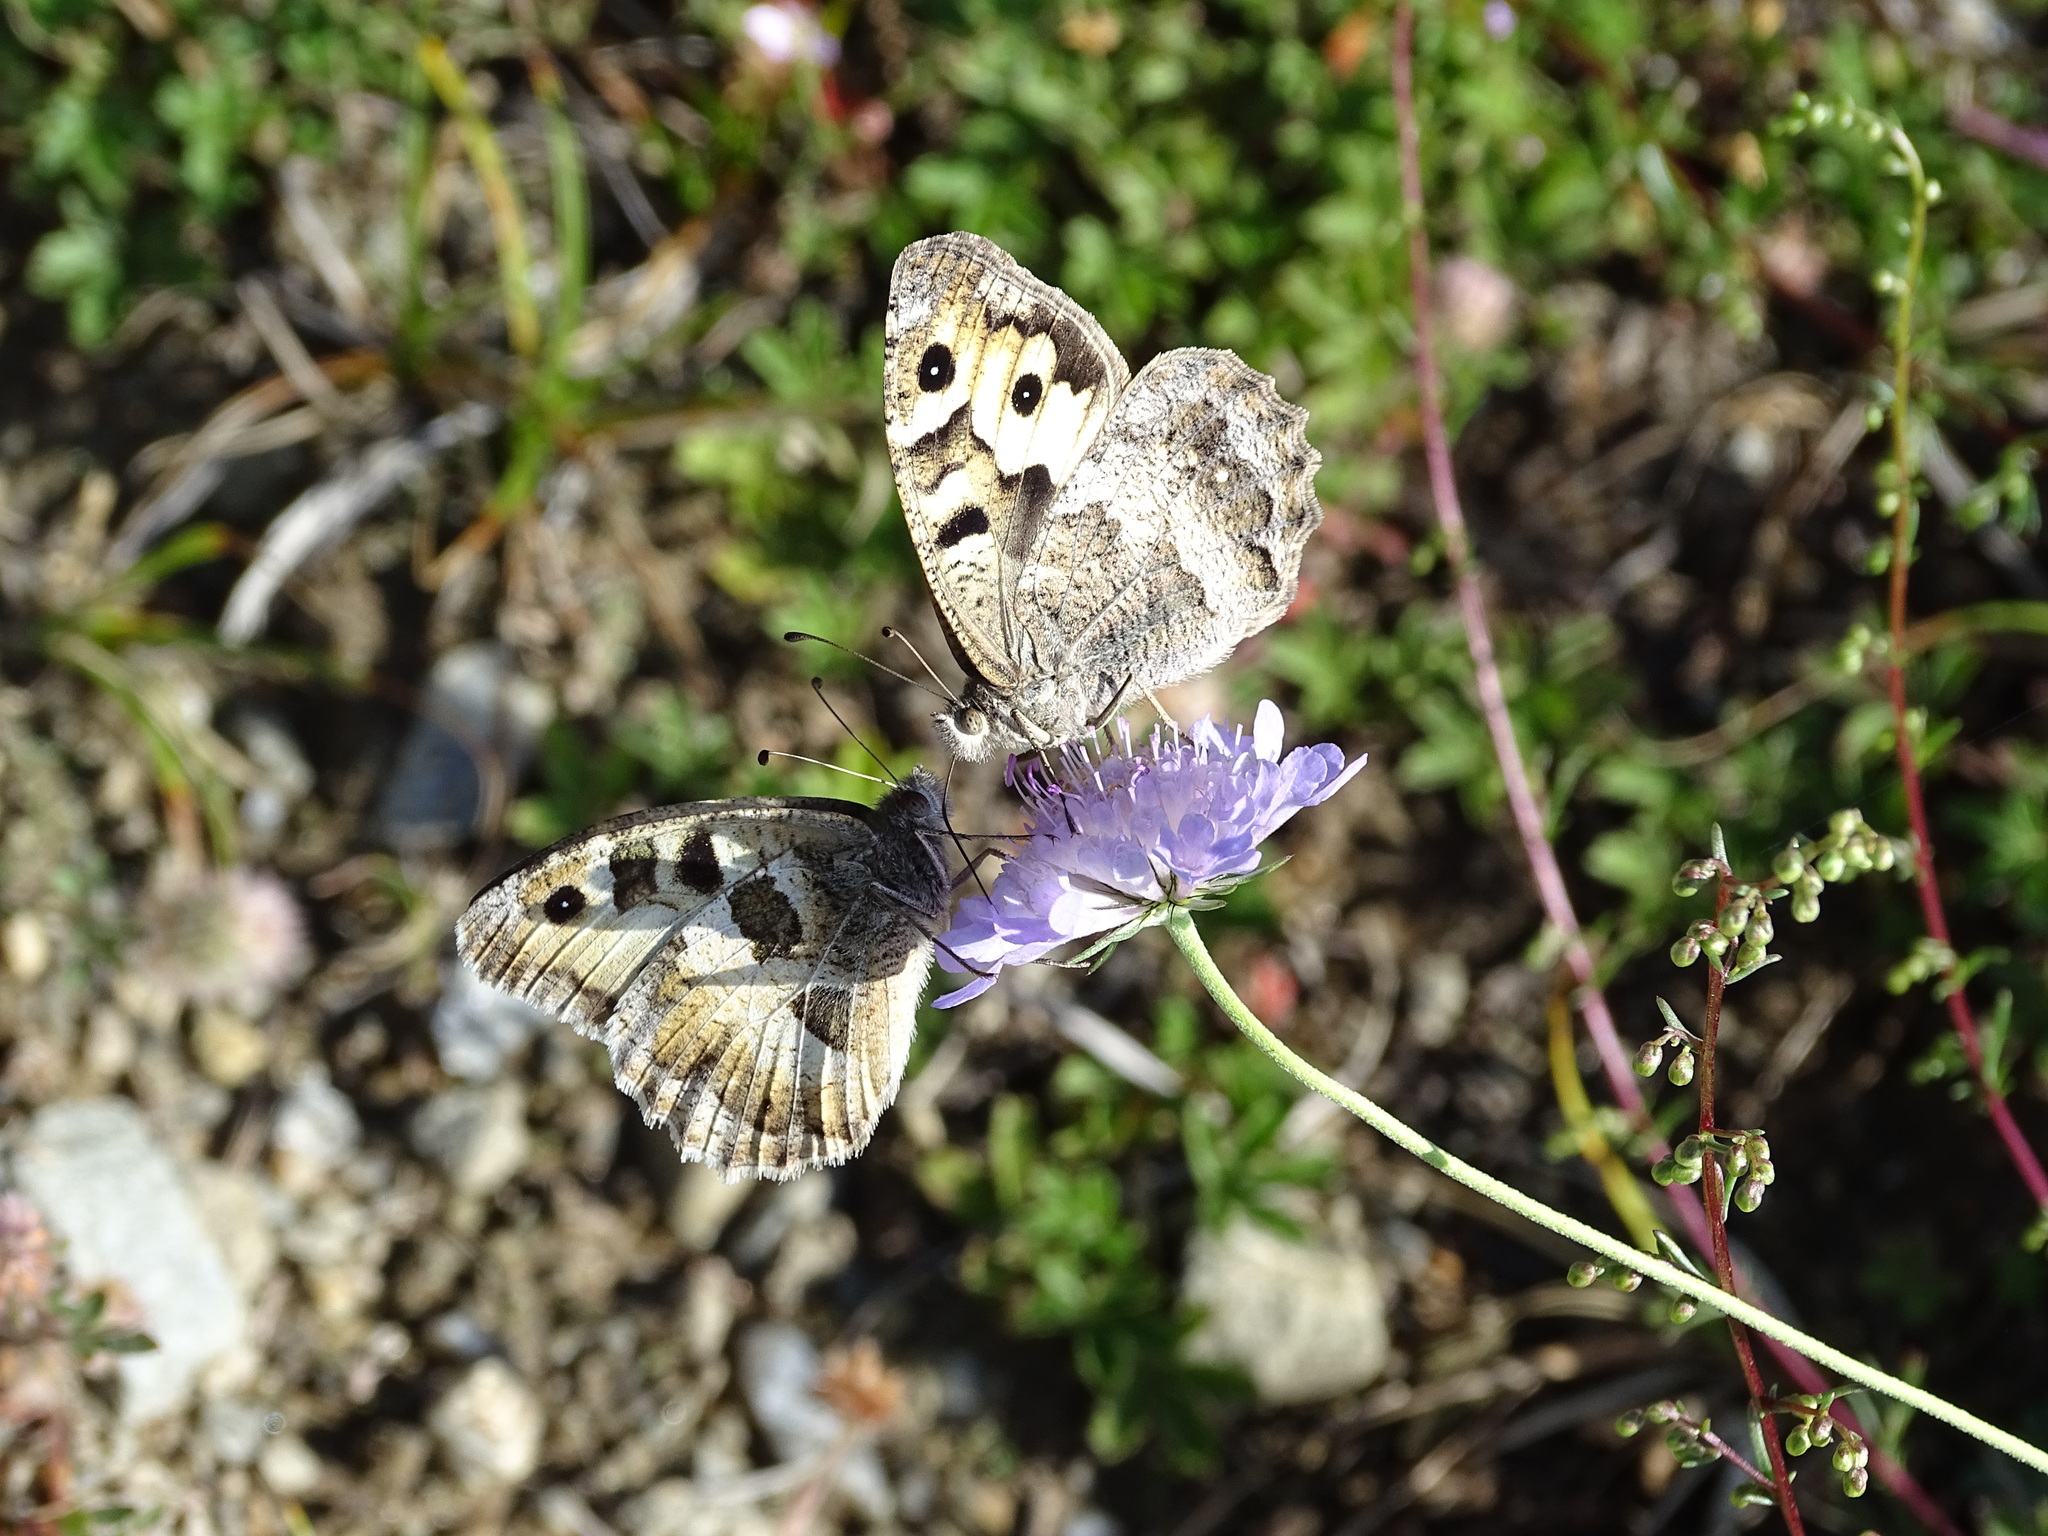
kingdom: Animalia
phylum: Arthropoda
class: Insecta
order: Lepidoptera
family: Nymphalidae
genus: Satyrus
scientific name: Satyrus briseis
